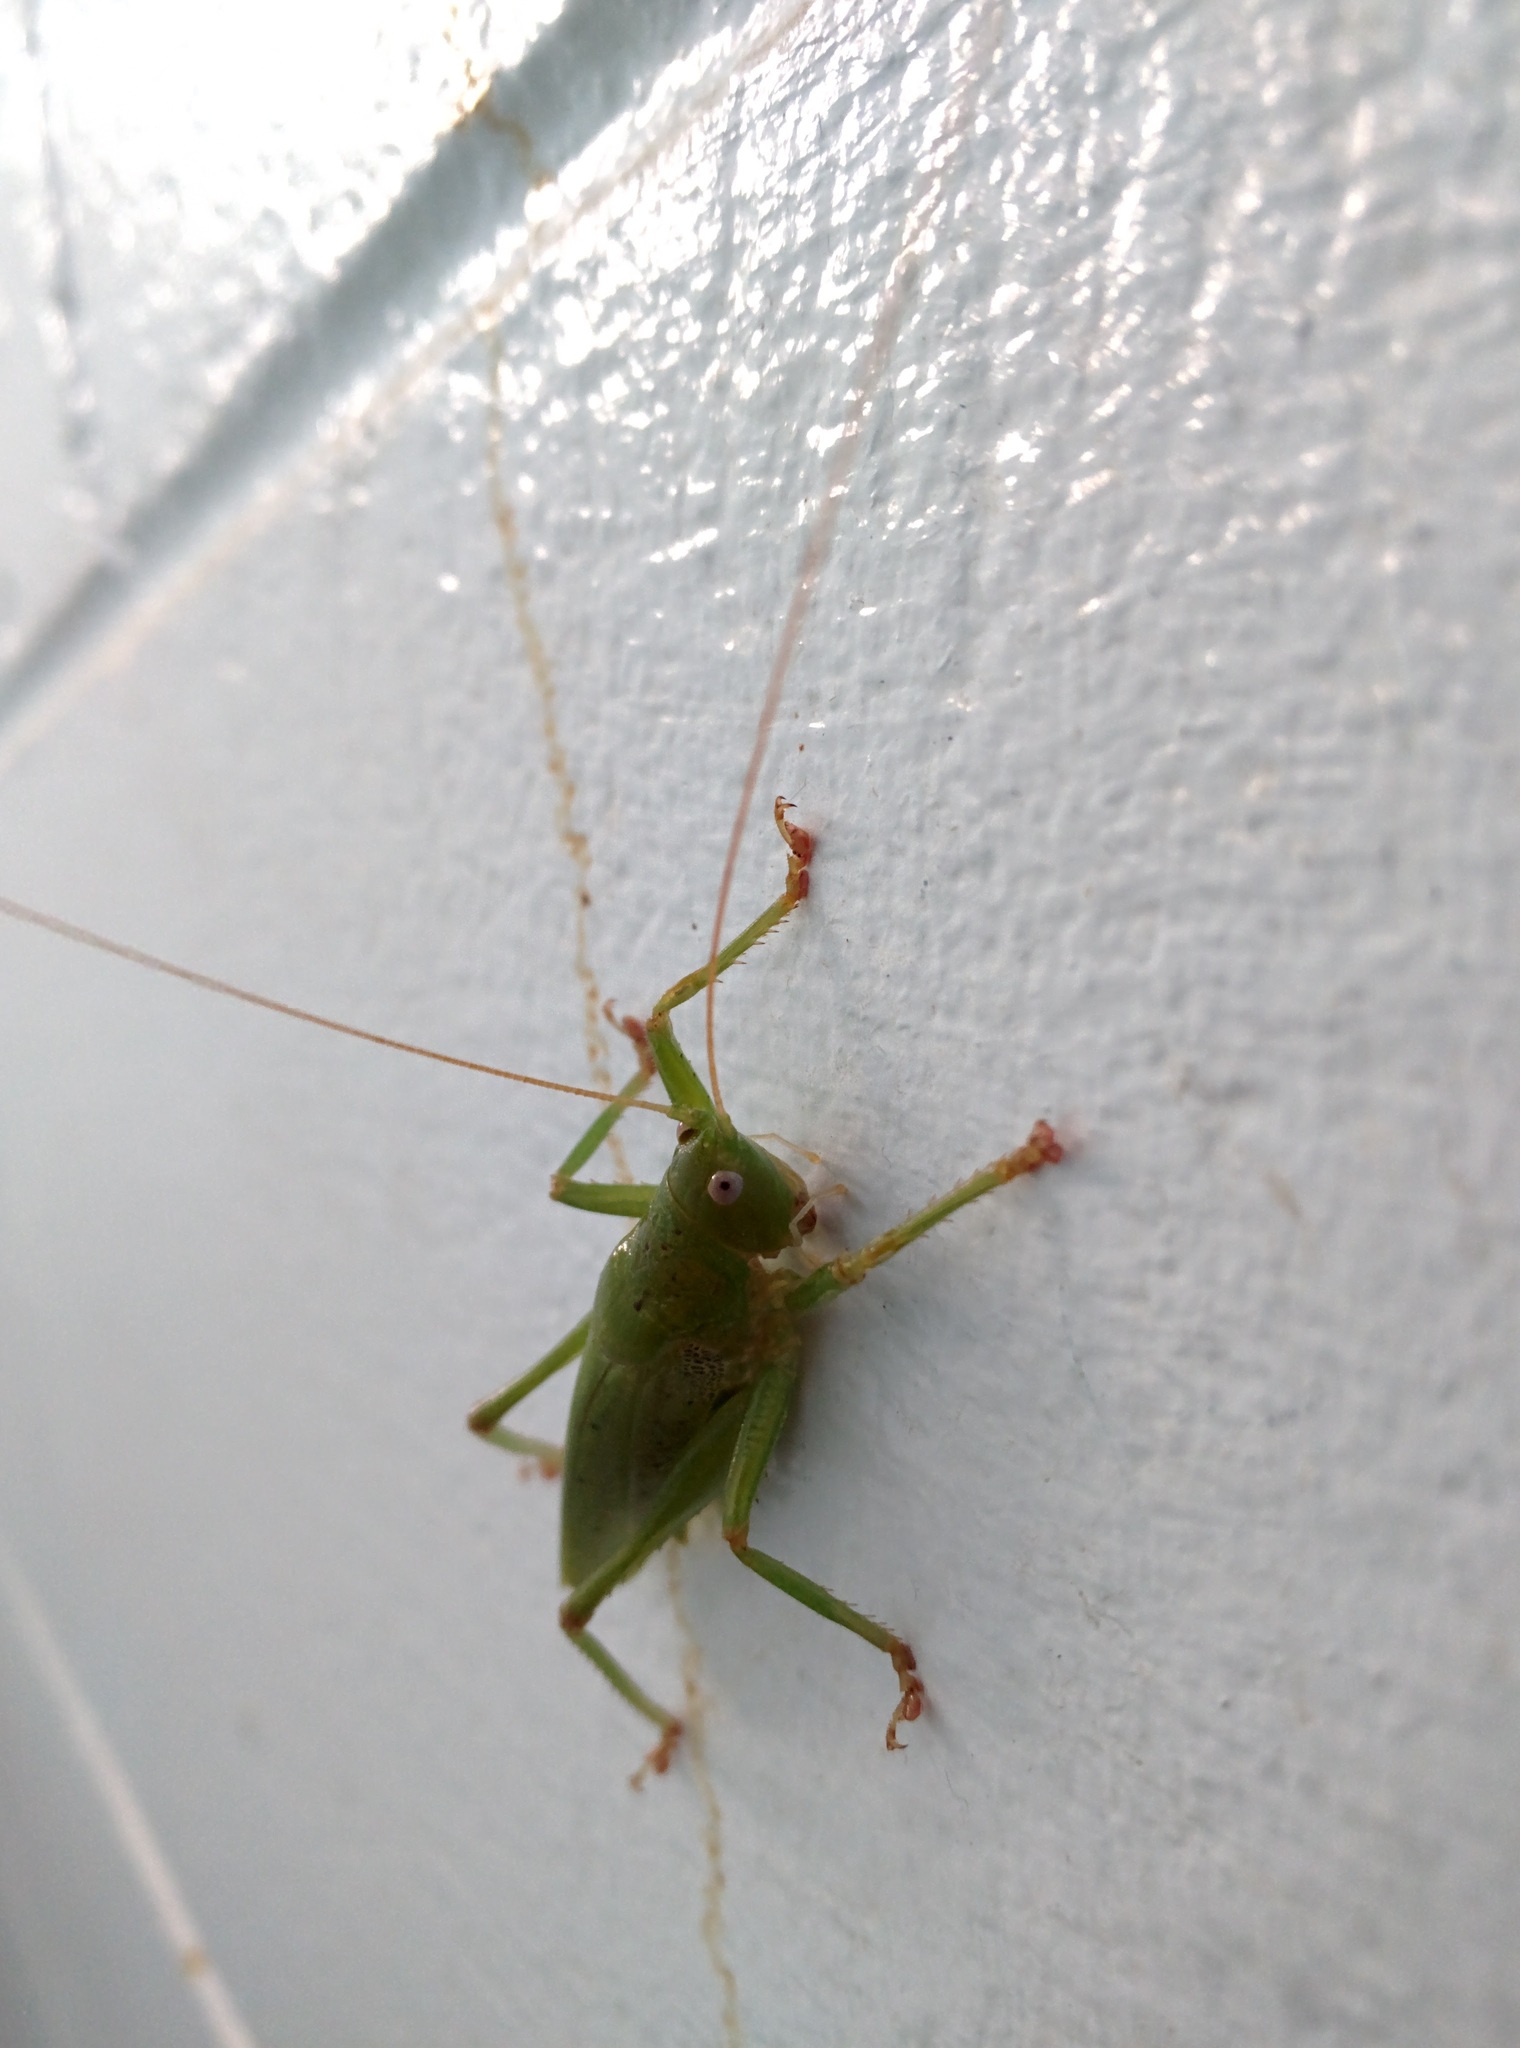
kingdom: Animalia
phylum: Arthropoda
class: Insecta
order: Orthoptera
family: Tettigoniidae
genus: Austrosalomona
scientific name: Austrosalomona destructor
